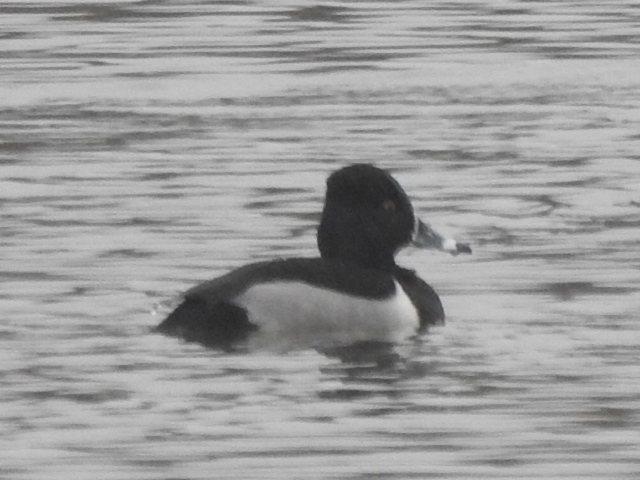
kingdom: Animalia
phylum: Chordata
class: Aves
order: Anseriformes
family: Anatidae
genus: Aythya
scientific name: Aythya collaris
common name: Ring-necked duck
